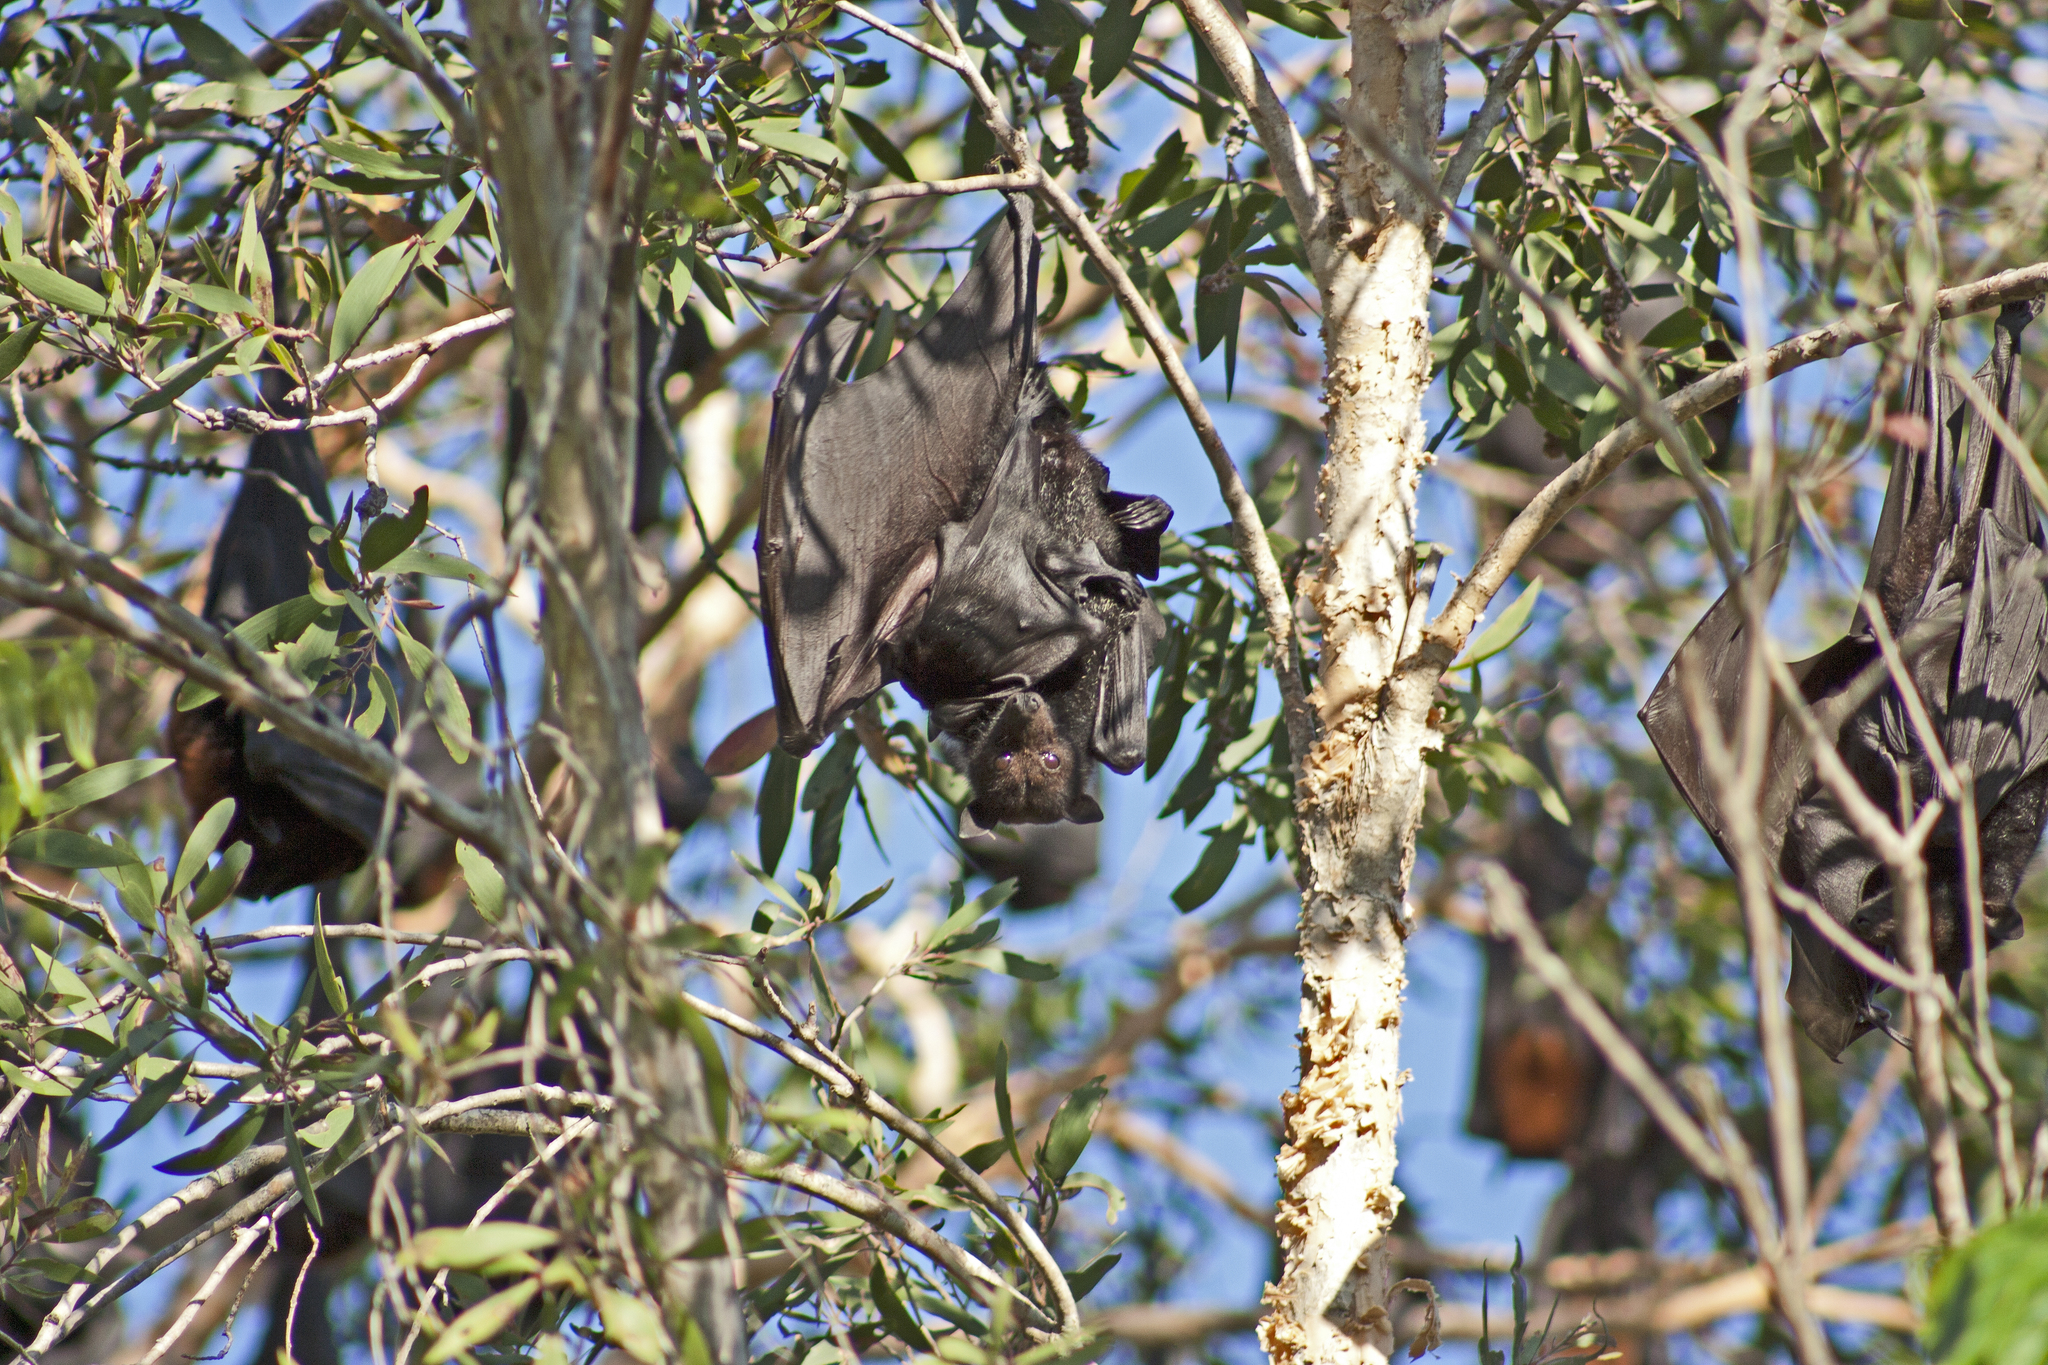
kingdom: Animalia
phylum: Chordata
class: Mammalia
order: Chiroptera
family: Pteropodidae
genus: Pteropus
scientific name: Pteropus alecto
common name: Black flying fox
